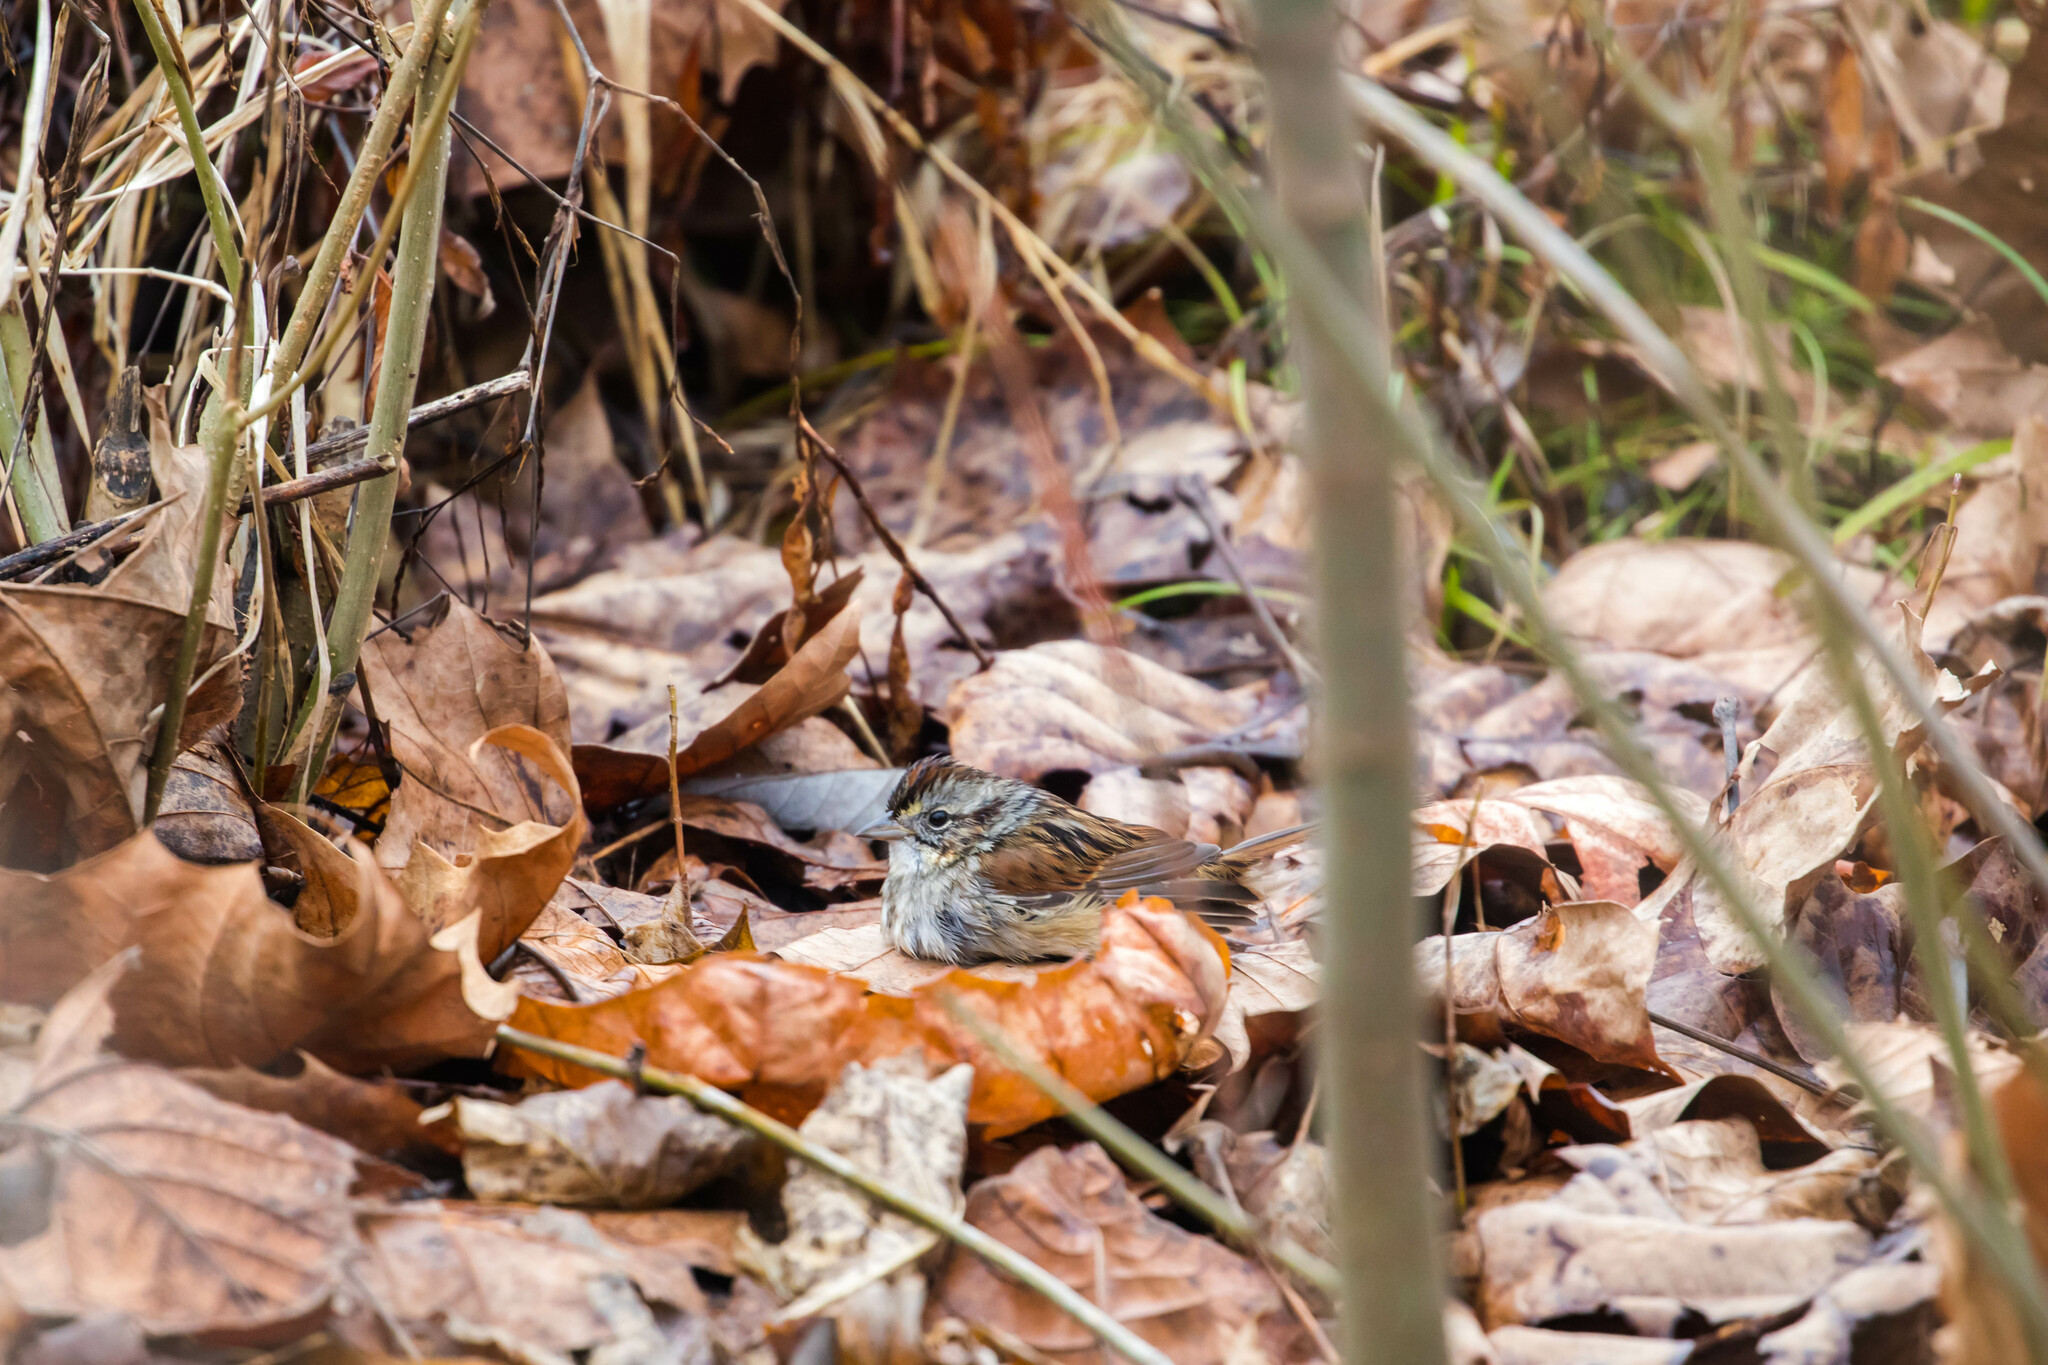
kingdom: Animalia
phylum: Chordata
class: Aves
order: Passeriformes
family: Passerellidae
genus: Melospiza
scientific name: Melospiza georgiana
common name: Swamp sparrow
